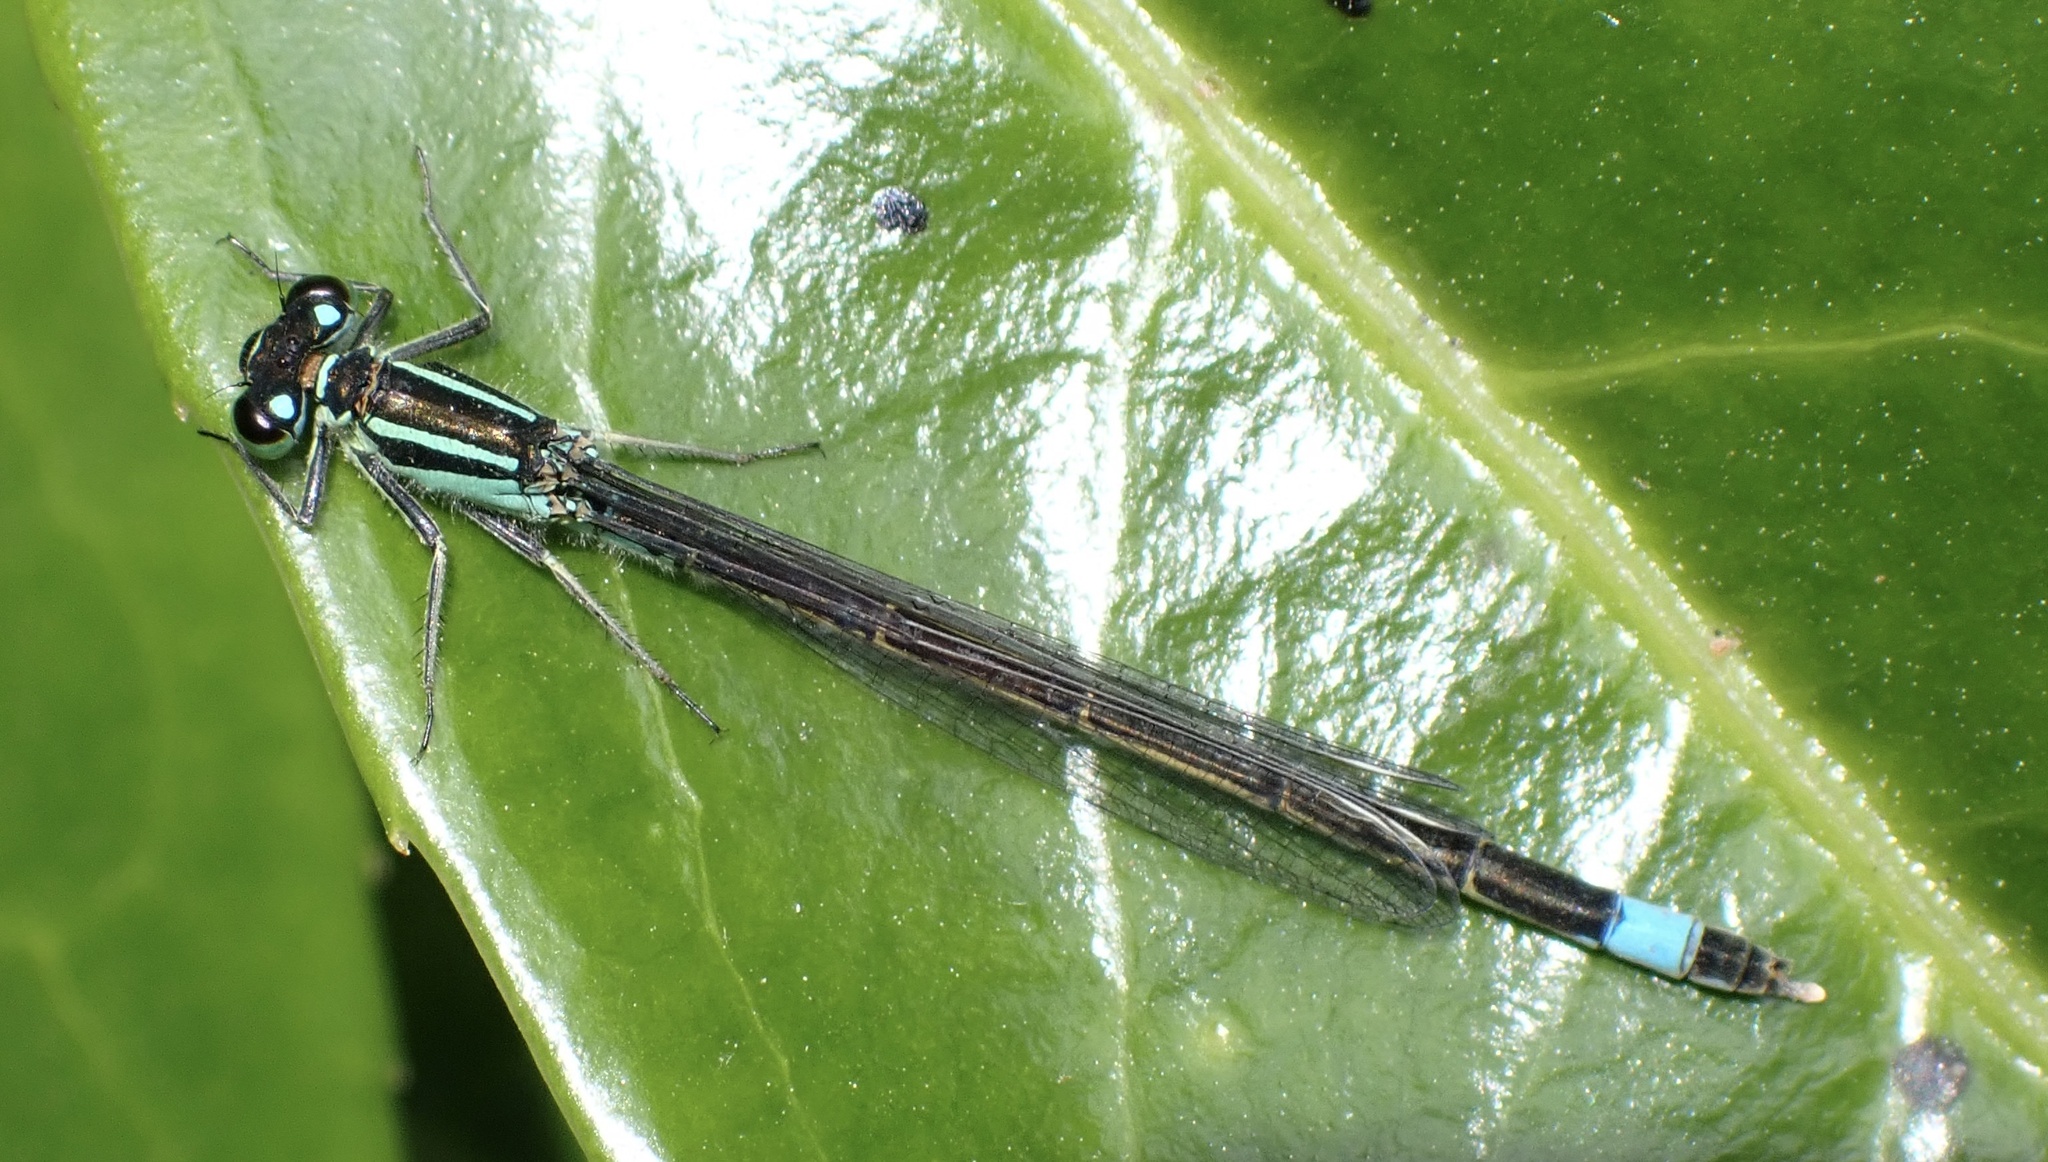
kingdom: Animalia
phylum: Arthropoda
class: Insecta
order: Odonata
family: Coenagrionidae
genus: Ischnura
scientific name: Ischnura elegans
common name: Blue-tailed damselfly
